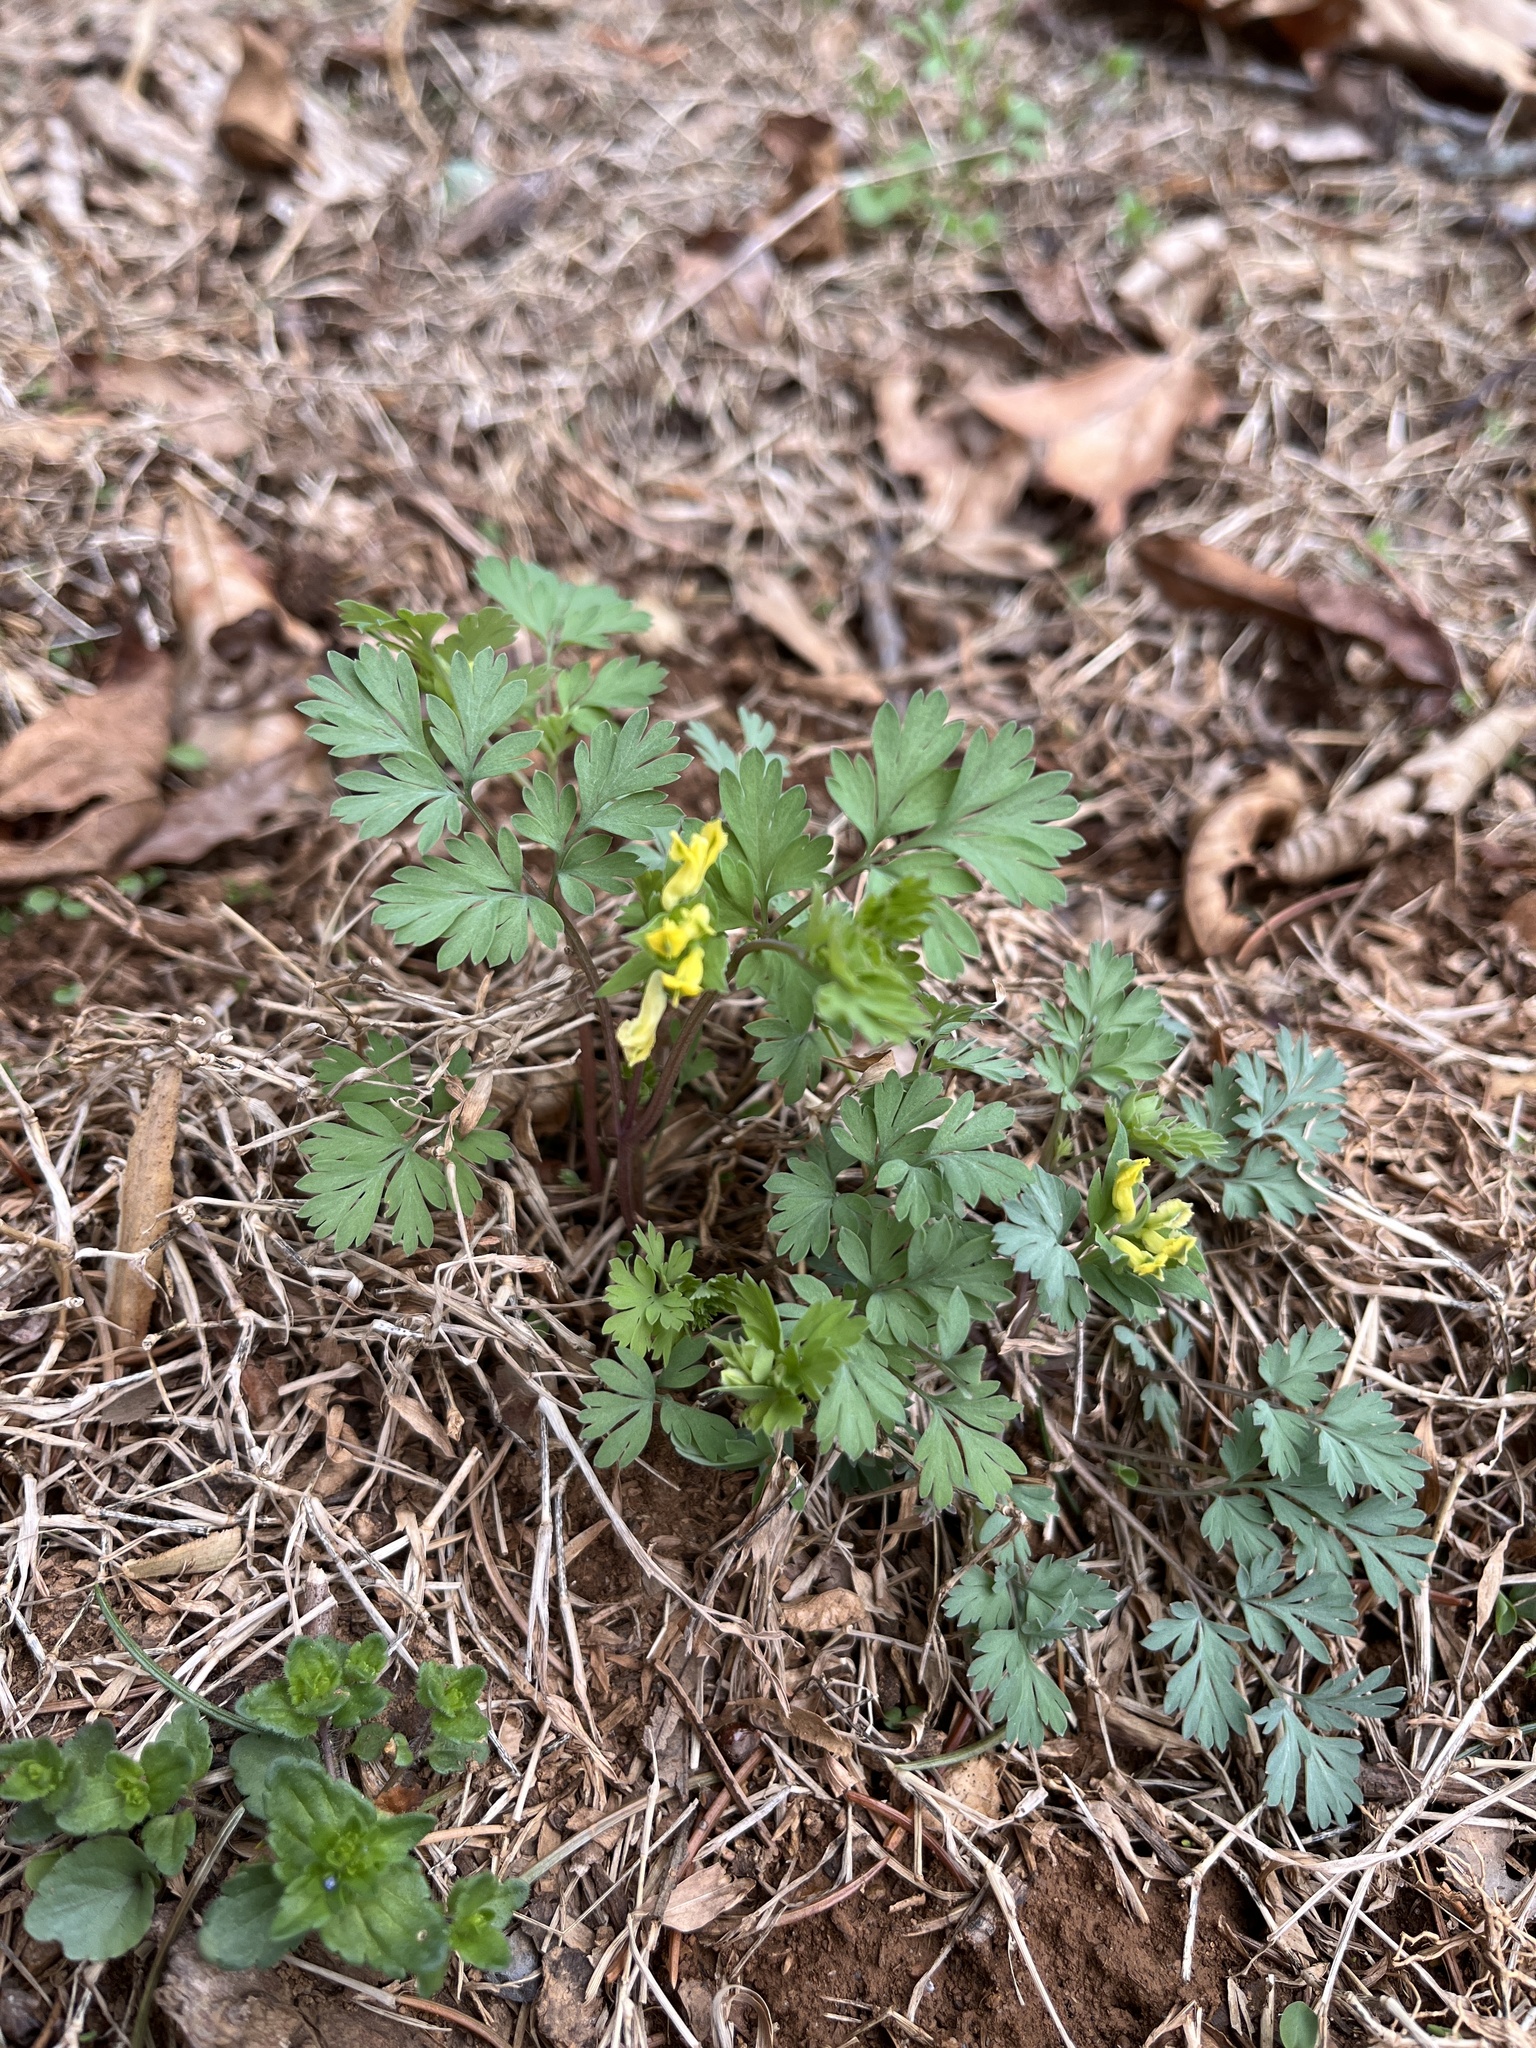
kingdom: Plantae
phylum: Tracheophyta
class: Magnoliopsida
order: Ranunculales
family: Papaveraceae
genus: Corydalis
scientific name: Corydalis flavula
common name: Yellow corydalis
